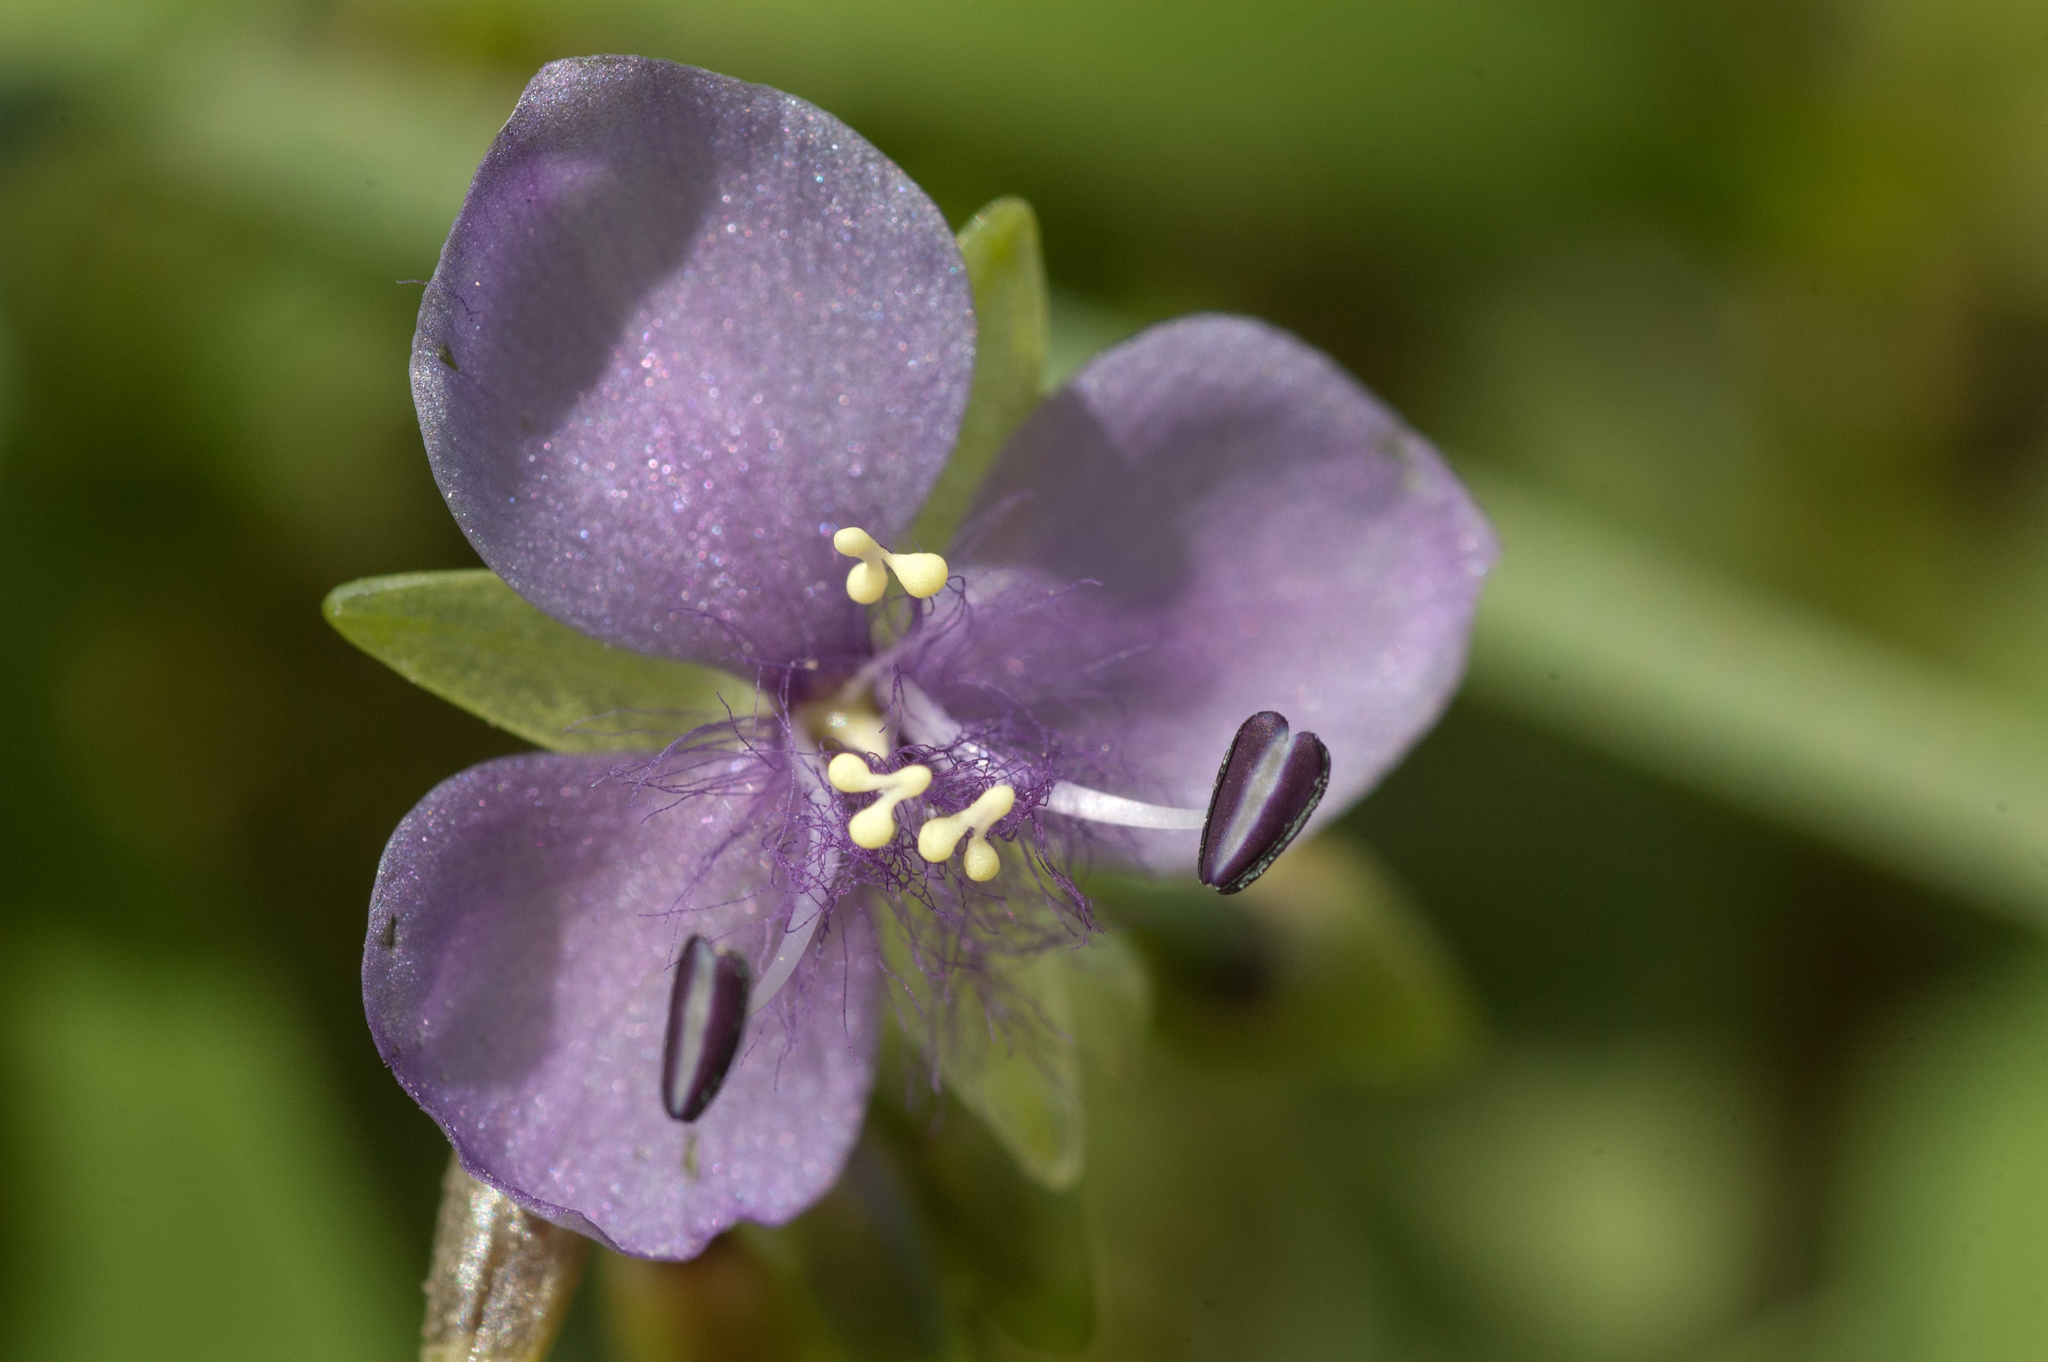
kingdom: Plantae
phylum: Tracheophyta
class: Liliopsida
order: Commelinales
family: Commelinaceae
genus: Murdannia
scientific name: Murdannia loriformis
